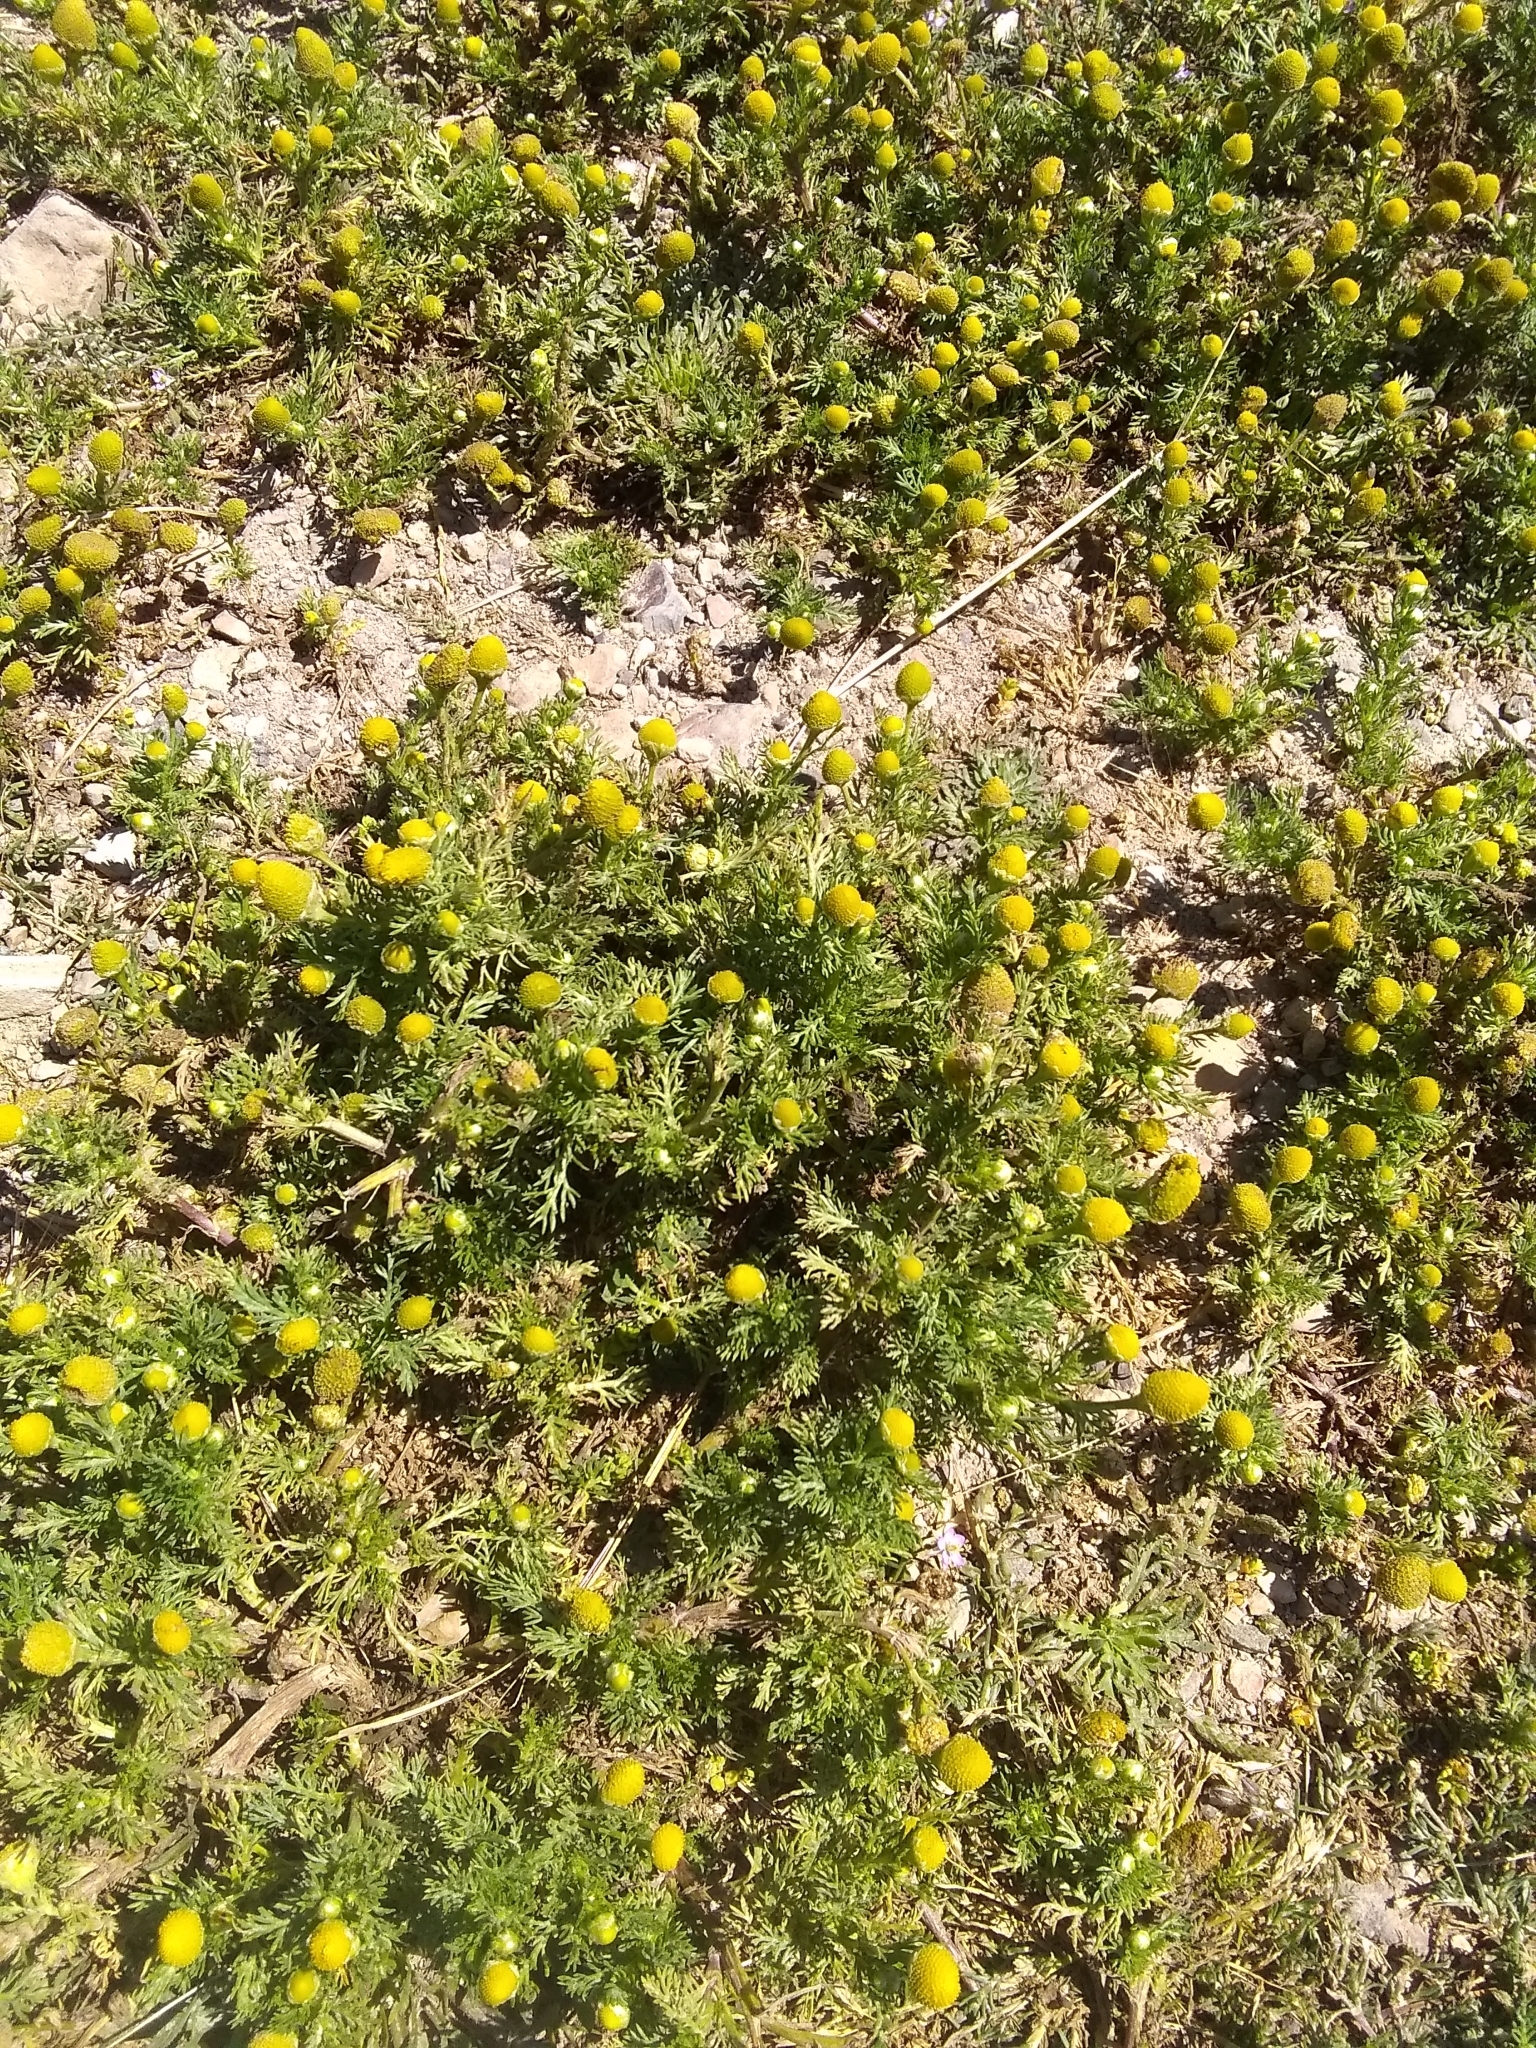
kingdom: Plantae
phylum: Tracheophyta
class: Magnoliopsida
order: Asterales
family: Asteraceae
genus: Matricaria
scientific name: Matricaria discoidea
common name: Disc mayweed
